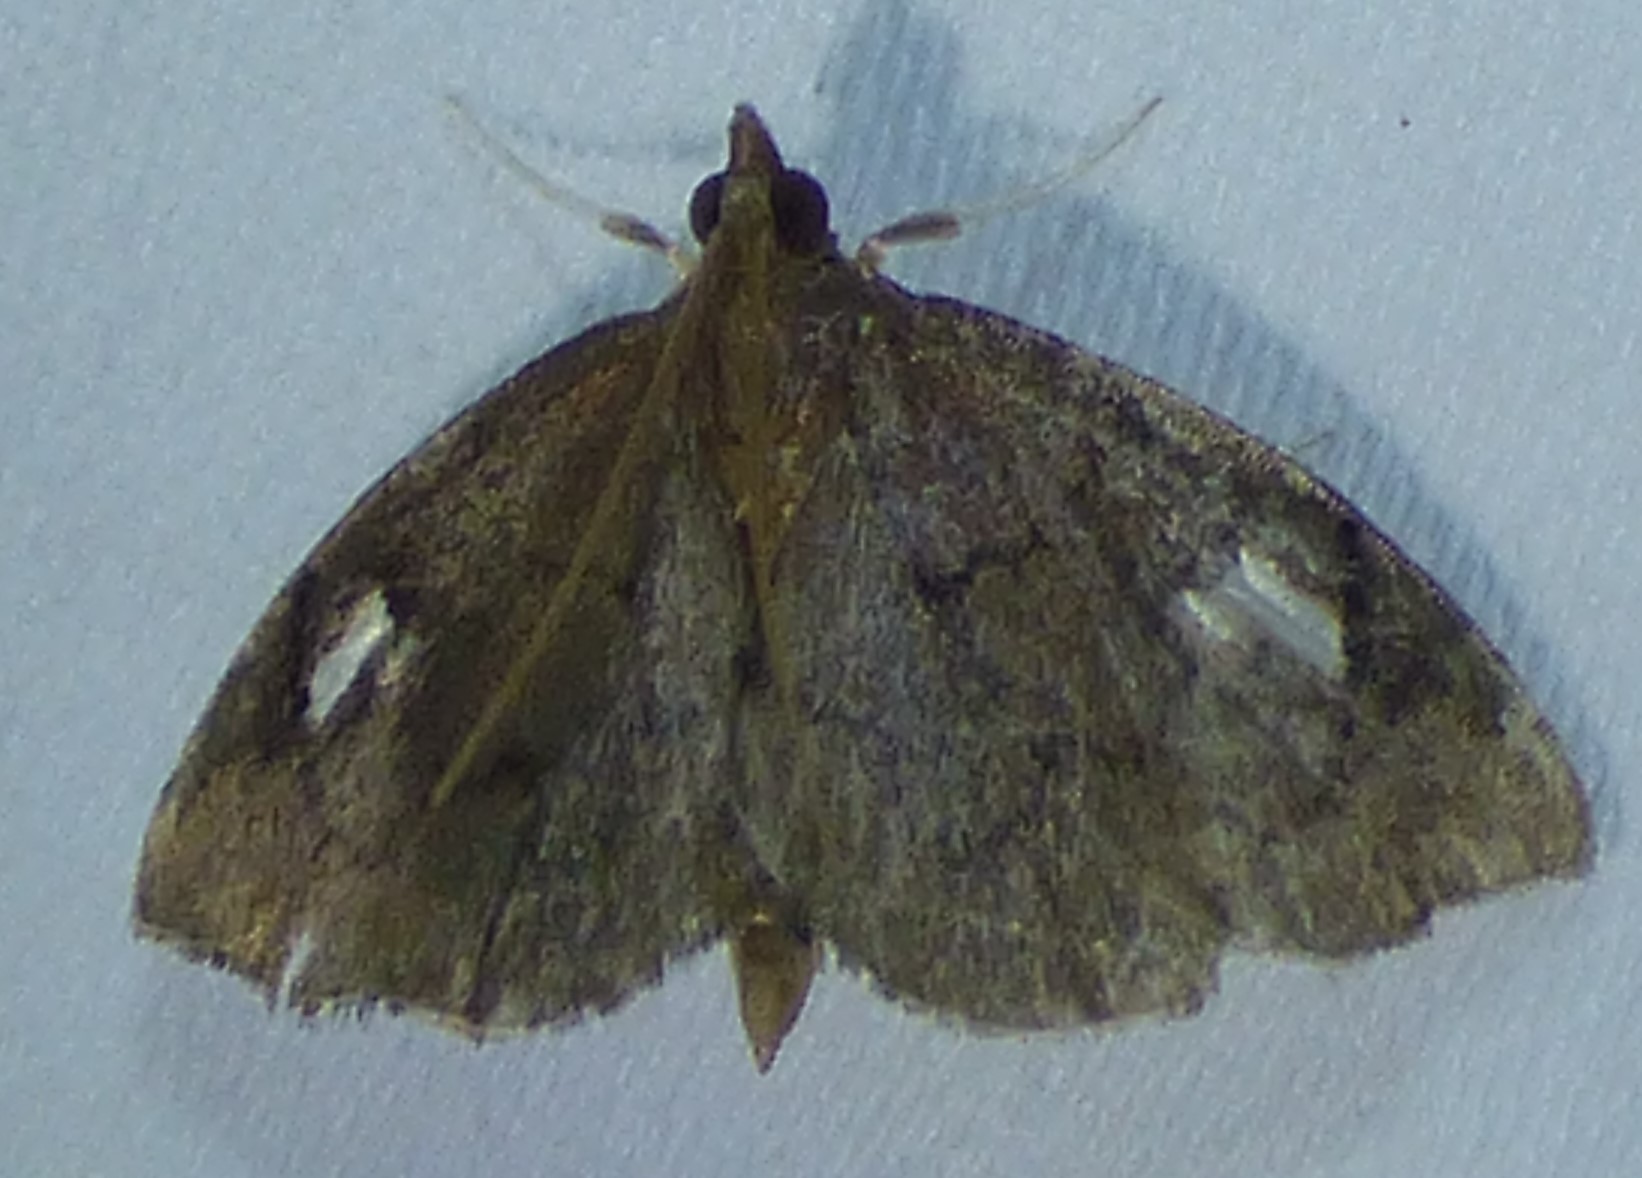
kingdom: Animalia
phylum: Arthropoda
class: Insecta
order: Lepidoptera
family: Crambidae
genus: Perispasta
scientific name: Perispasta caeculalis
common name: Titian peale's moth
